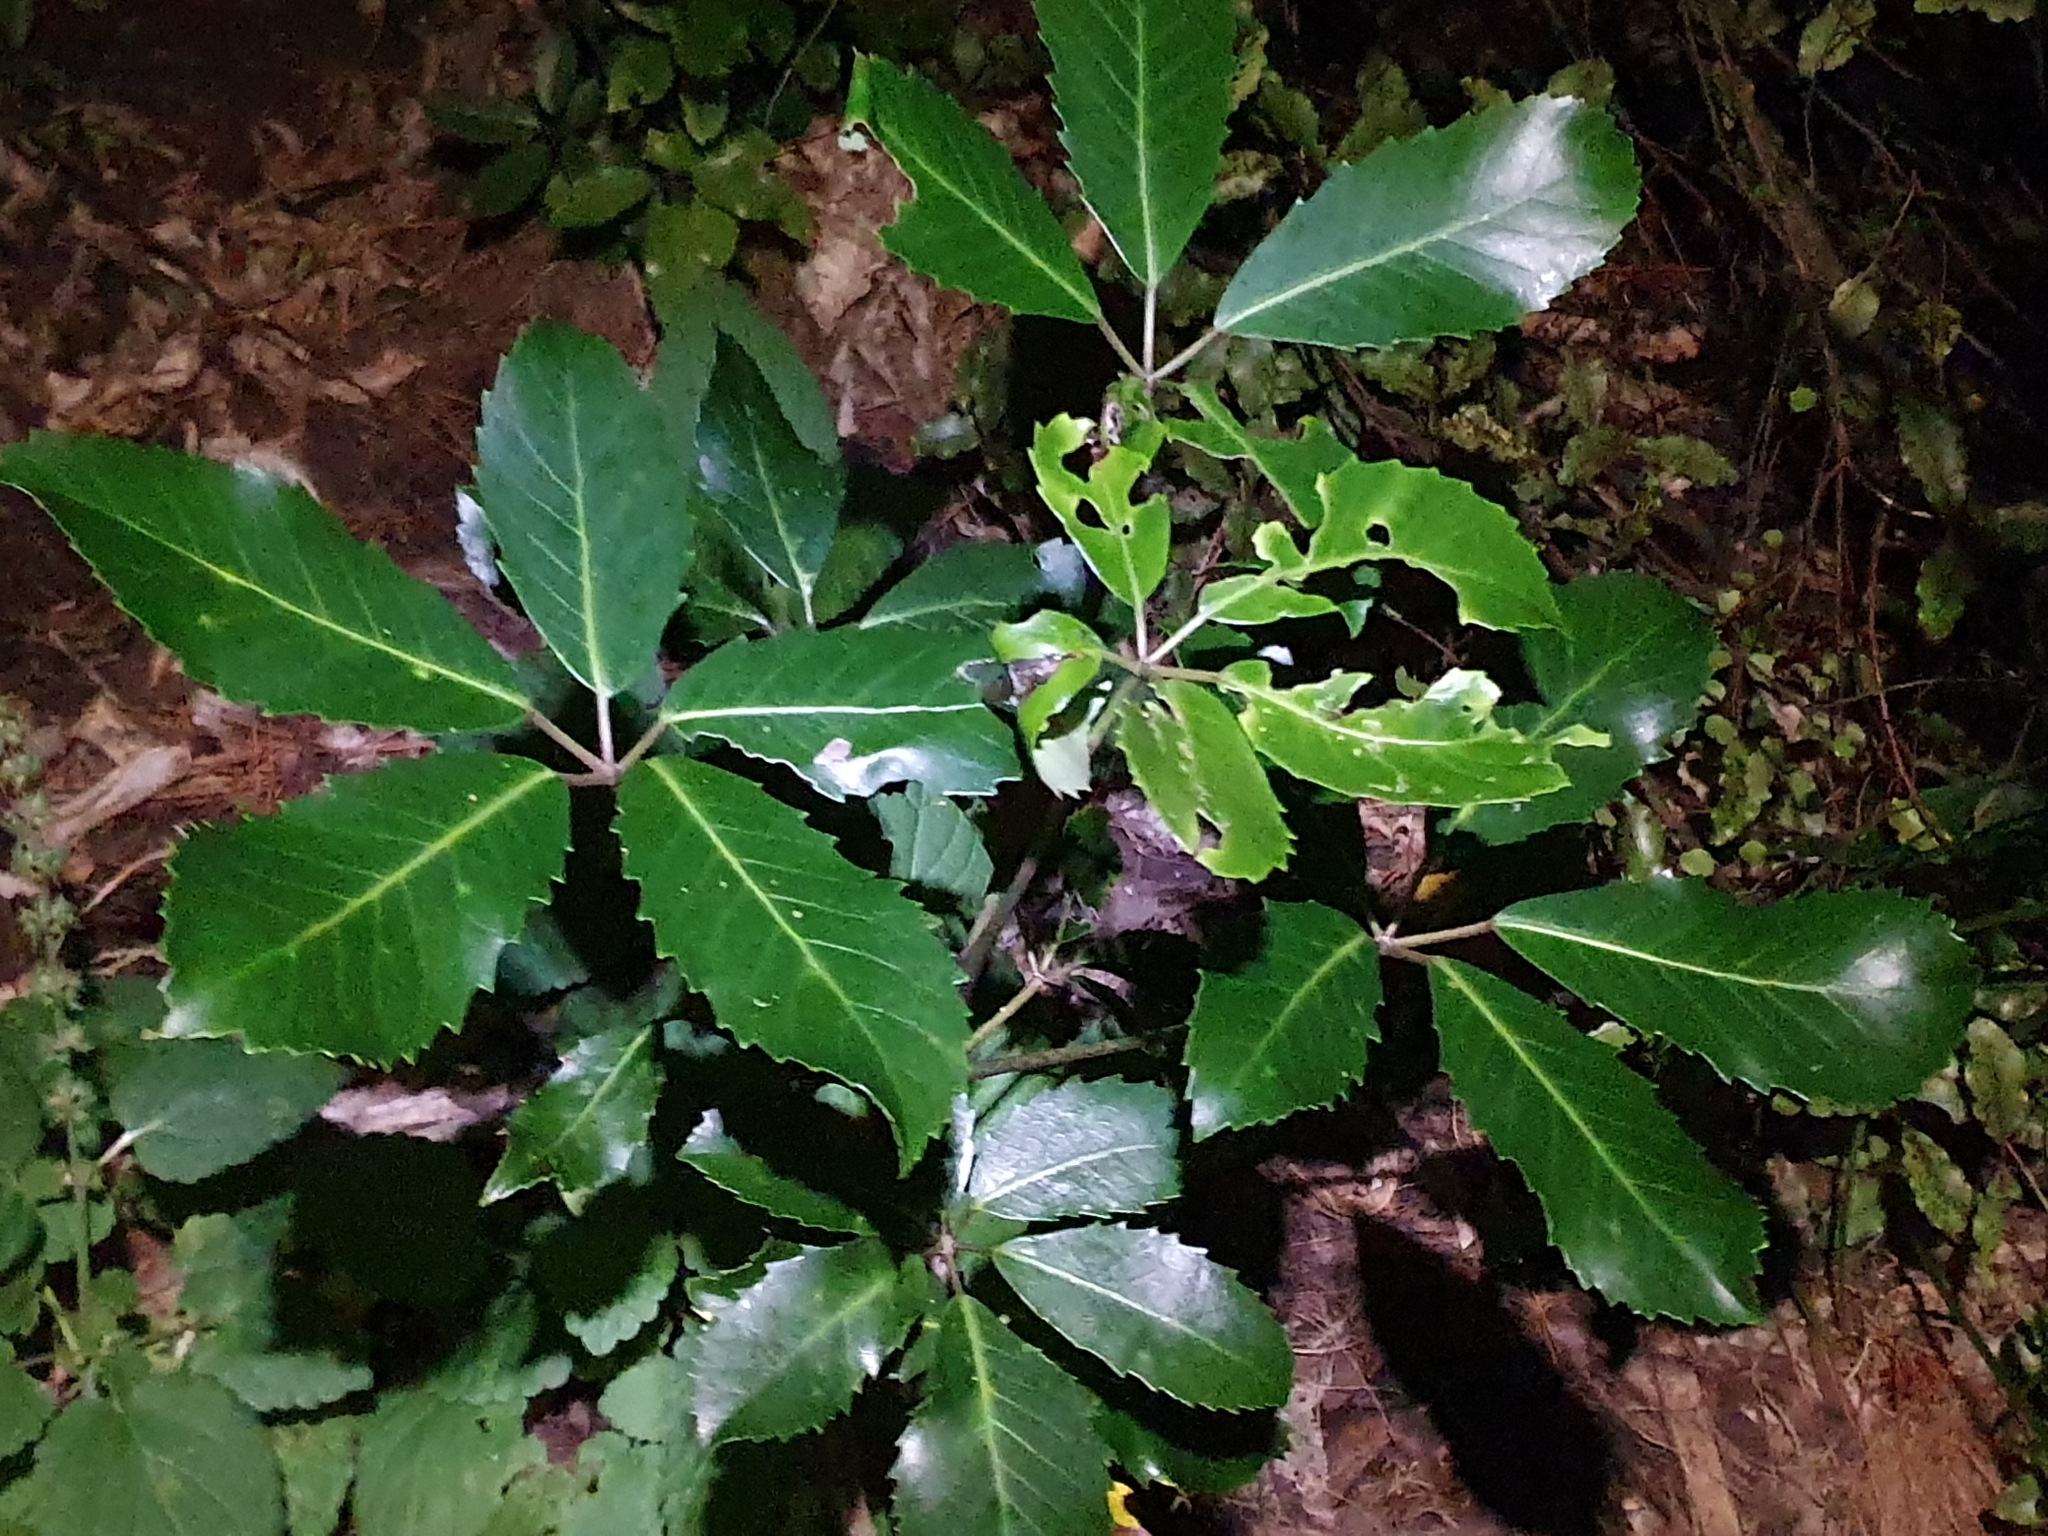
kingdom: Plantae
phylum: Tracheophyta
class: Magnoliopsida
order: Apiales
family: Araliaceae
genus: Neopanax
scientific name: Neopanax arboreus
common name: Five-fingers
